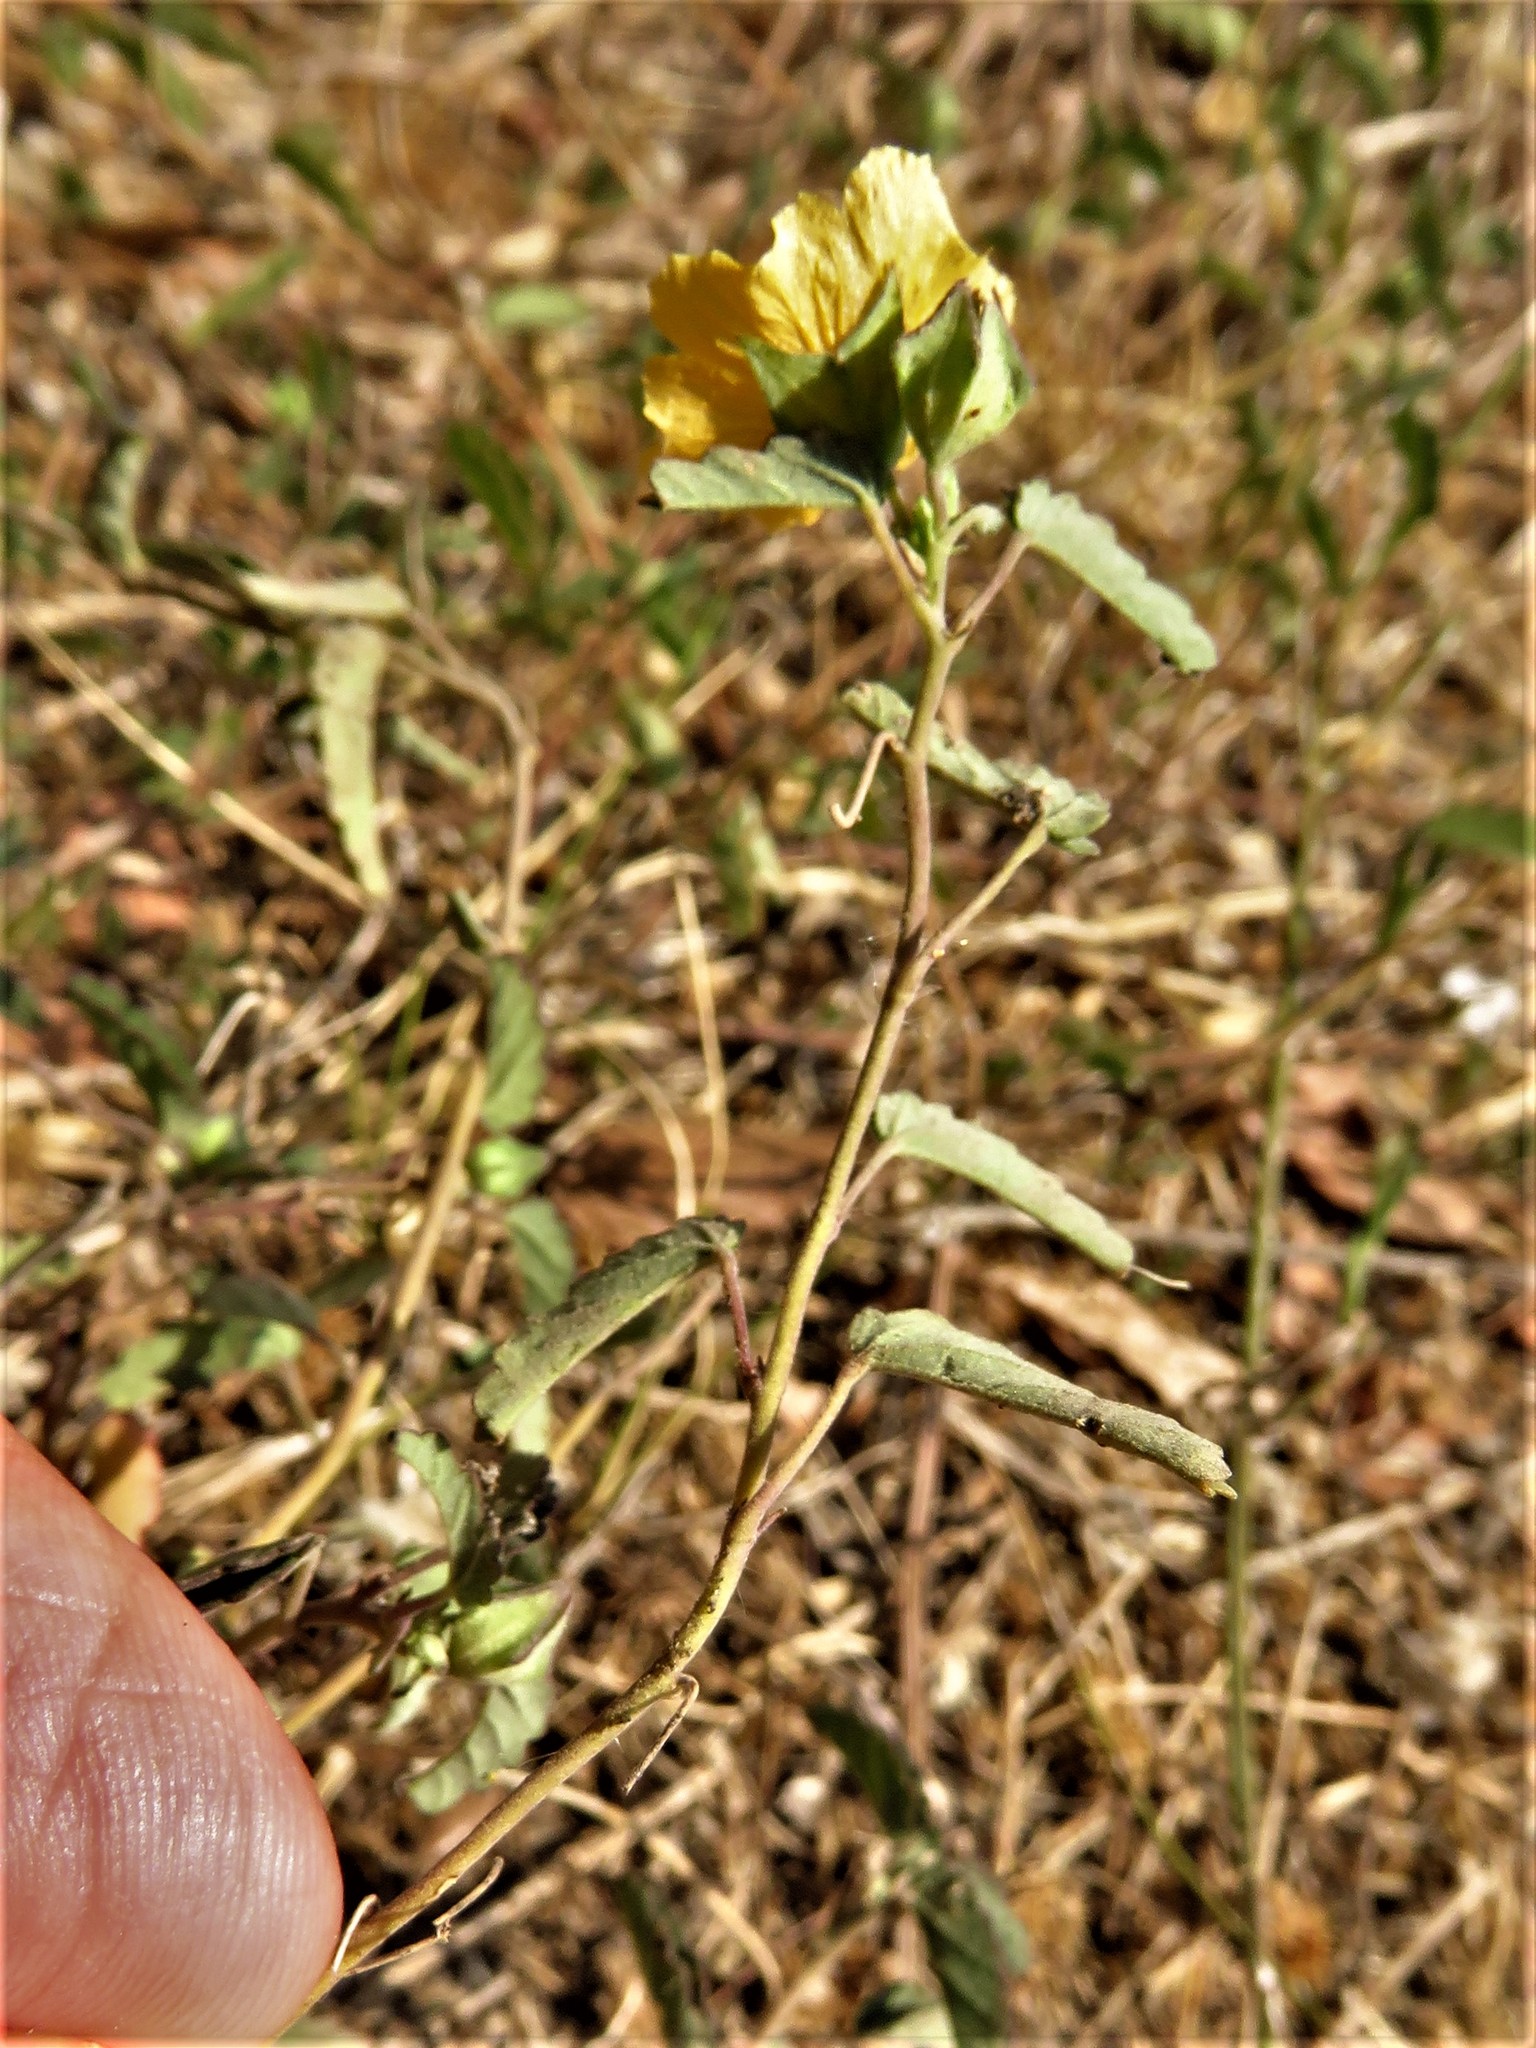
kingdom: Plantae
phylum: Tracheophyta
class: Magnoliopsida
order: Malvales
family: Malvaceae
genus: Sida
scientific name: Sida abutilifolia
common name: Spreading fanpetals
